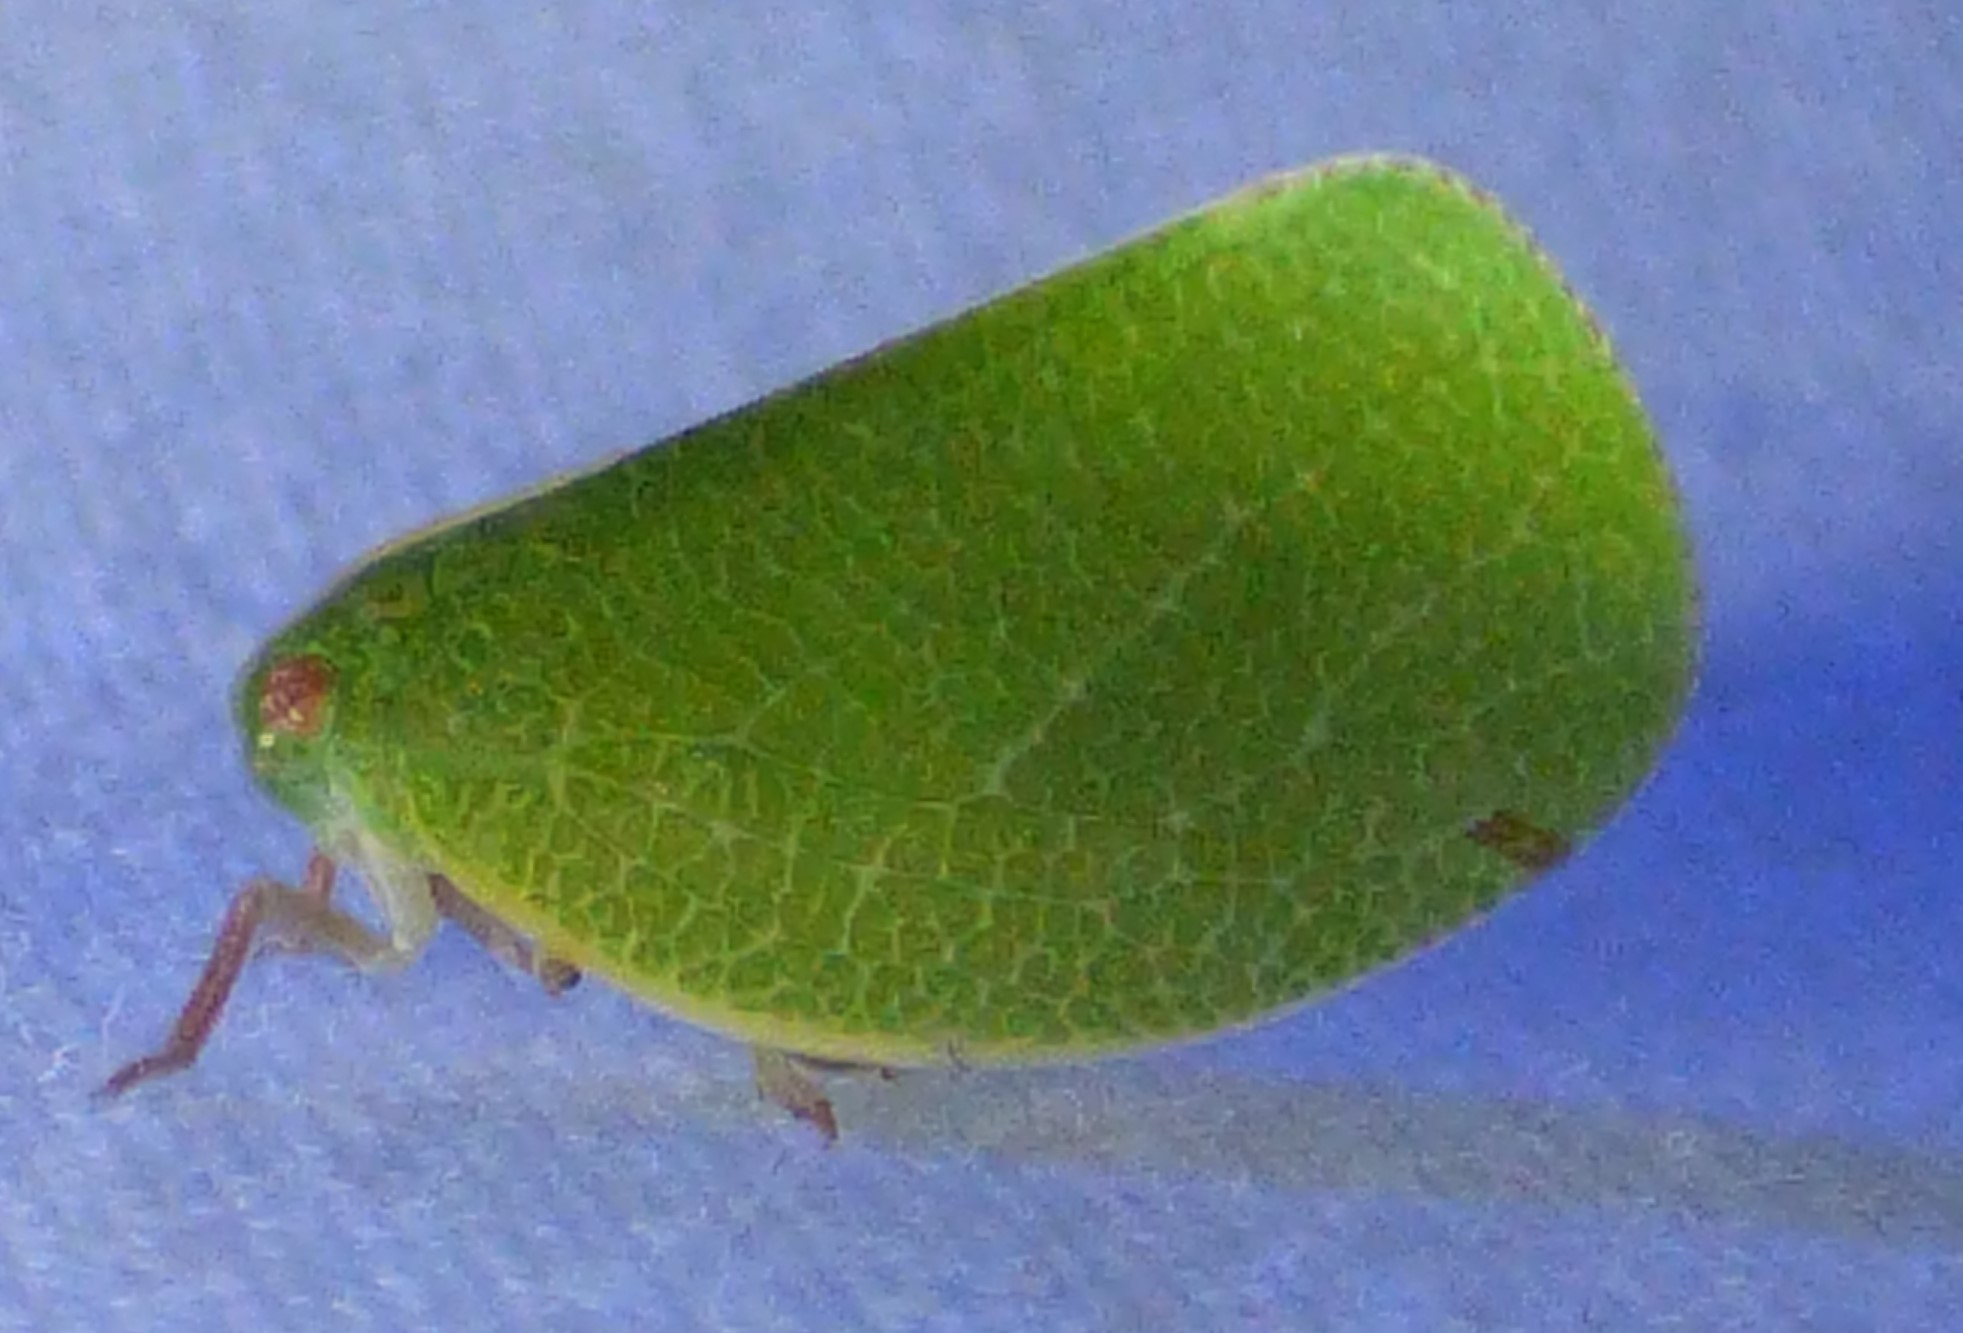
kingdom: Animalia
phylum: Arthropoda
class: Insecta
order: Hemiptera
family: Acanaloniidae
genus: Acanalonia
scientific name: Acanalonia servillei
